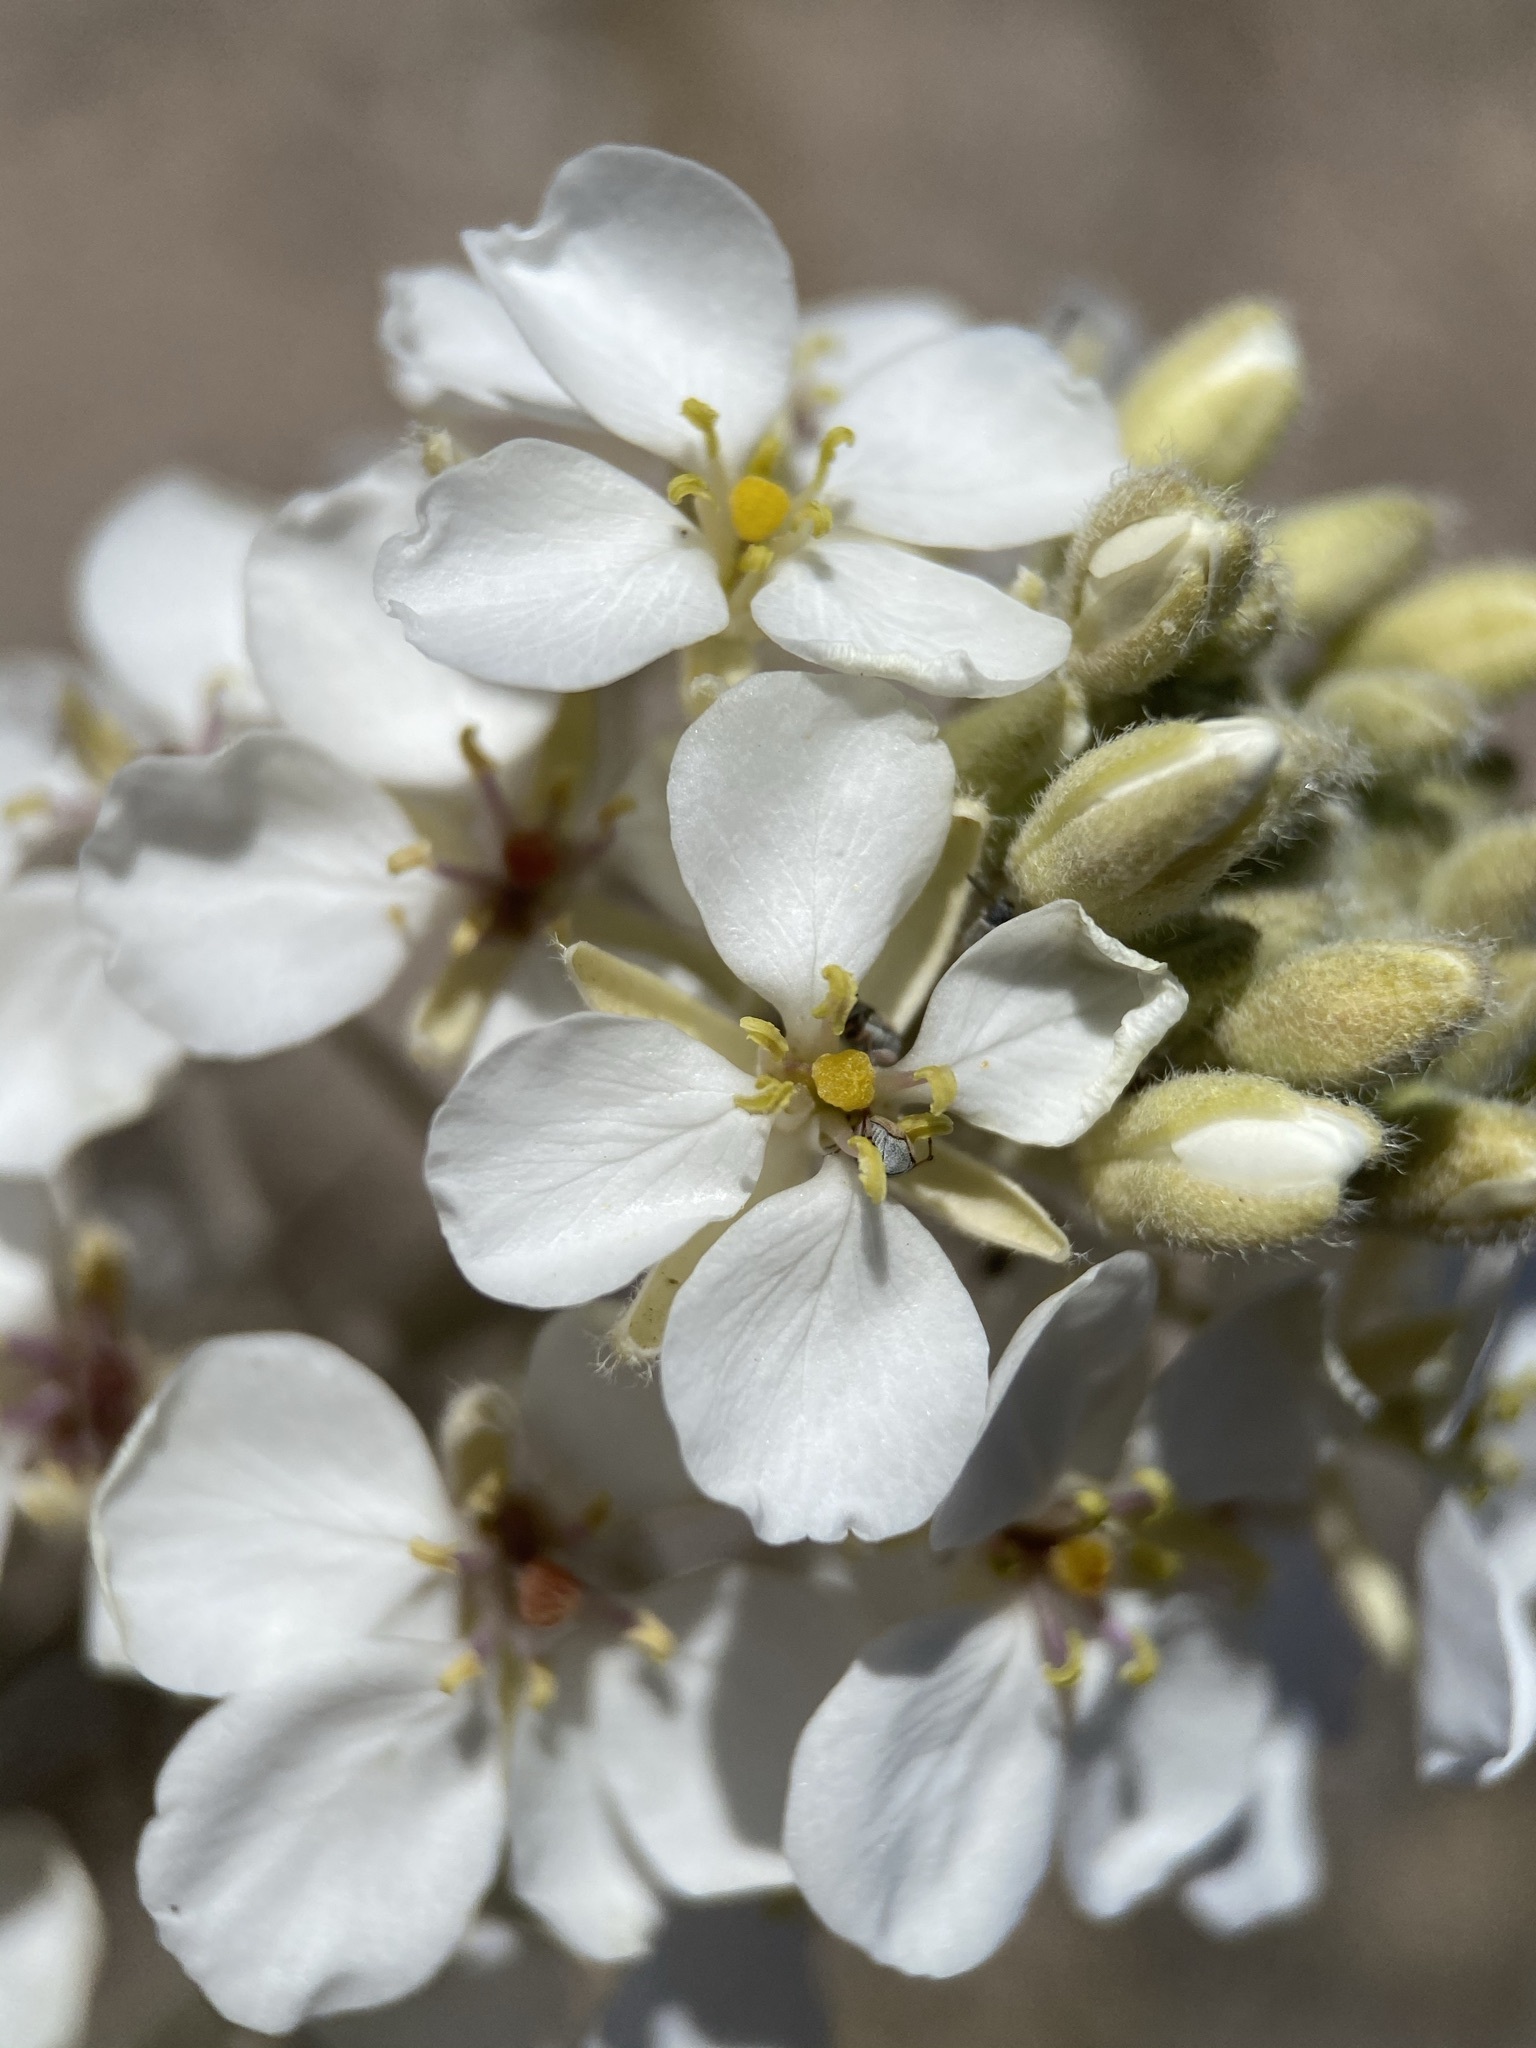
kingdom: Plantae
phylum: Tracheophyta
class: Magnoliopsida
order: Brassicales
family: Brassicaceae
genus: Dimorphocarpa
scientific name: Dimorphocarpa wislizenii
